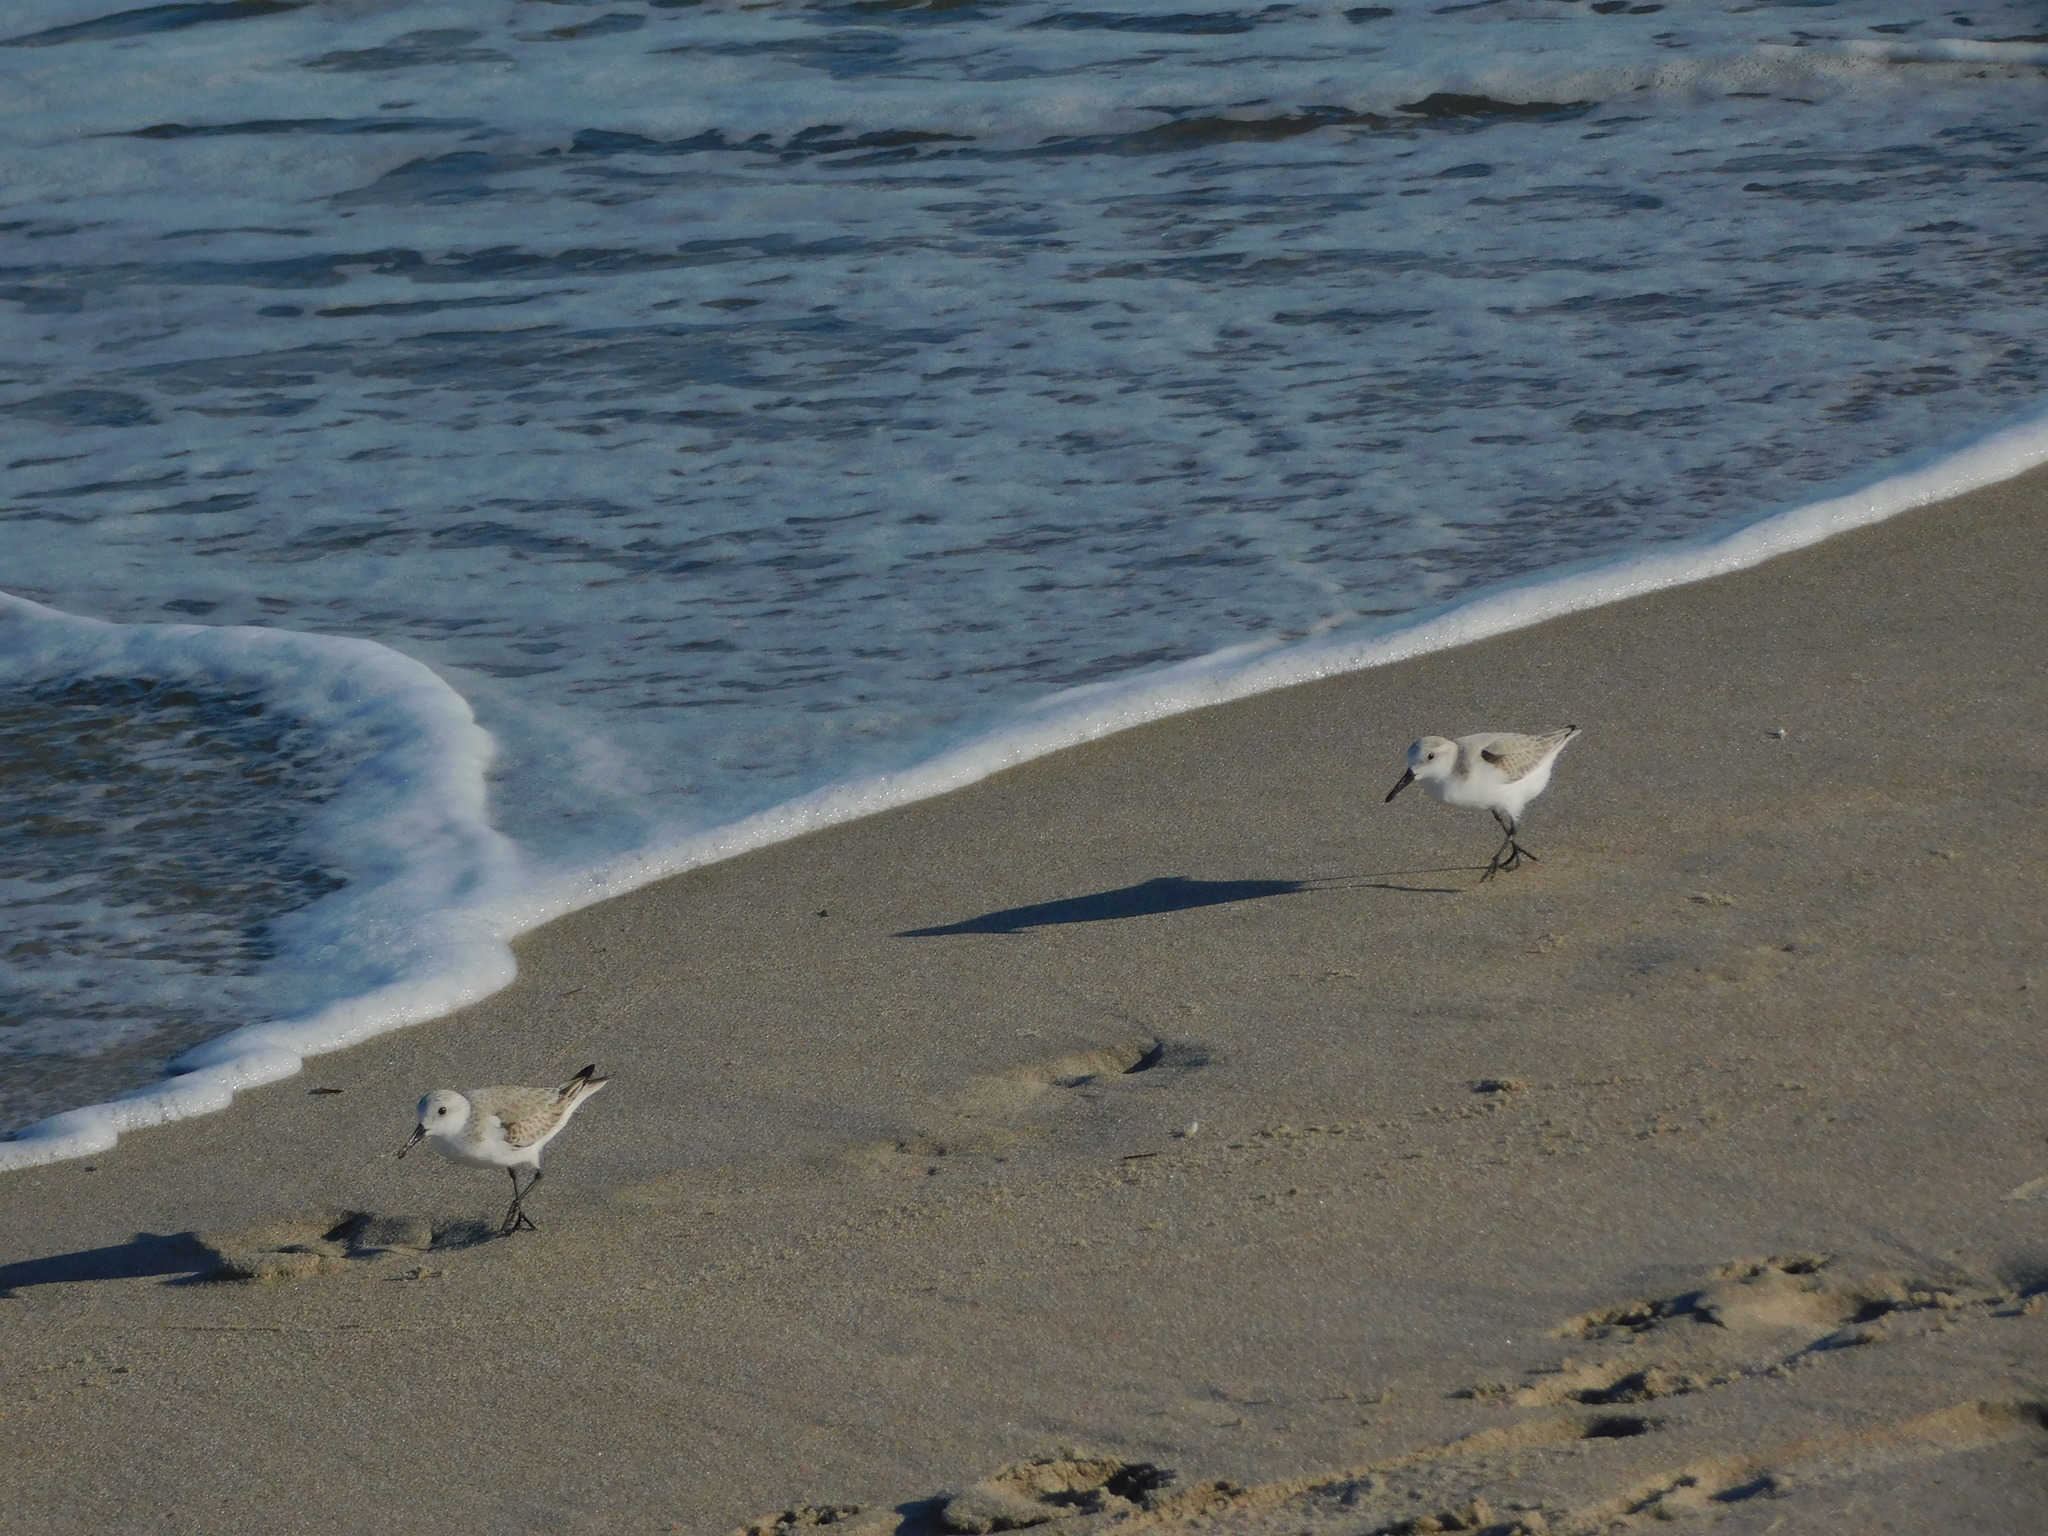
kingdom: Animalia
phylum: Chordata
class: Aves
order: Charadriiformes
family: Scolopacidae
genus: Calidris
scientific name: Calidris alba
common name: Sanderling
